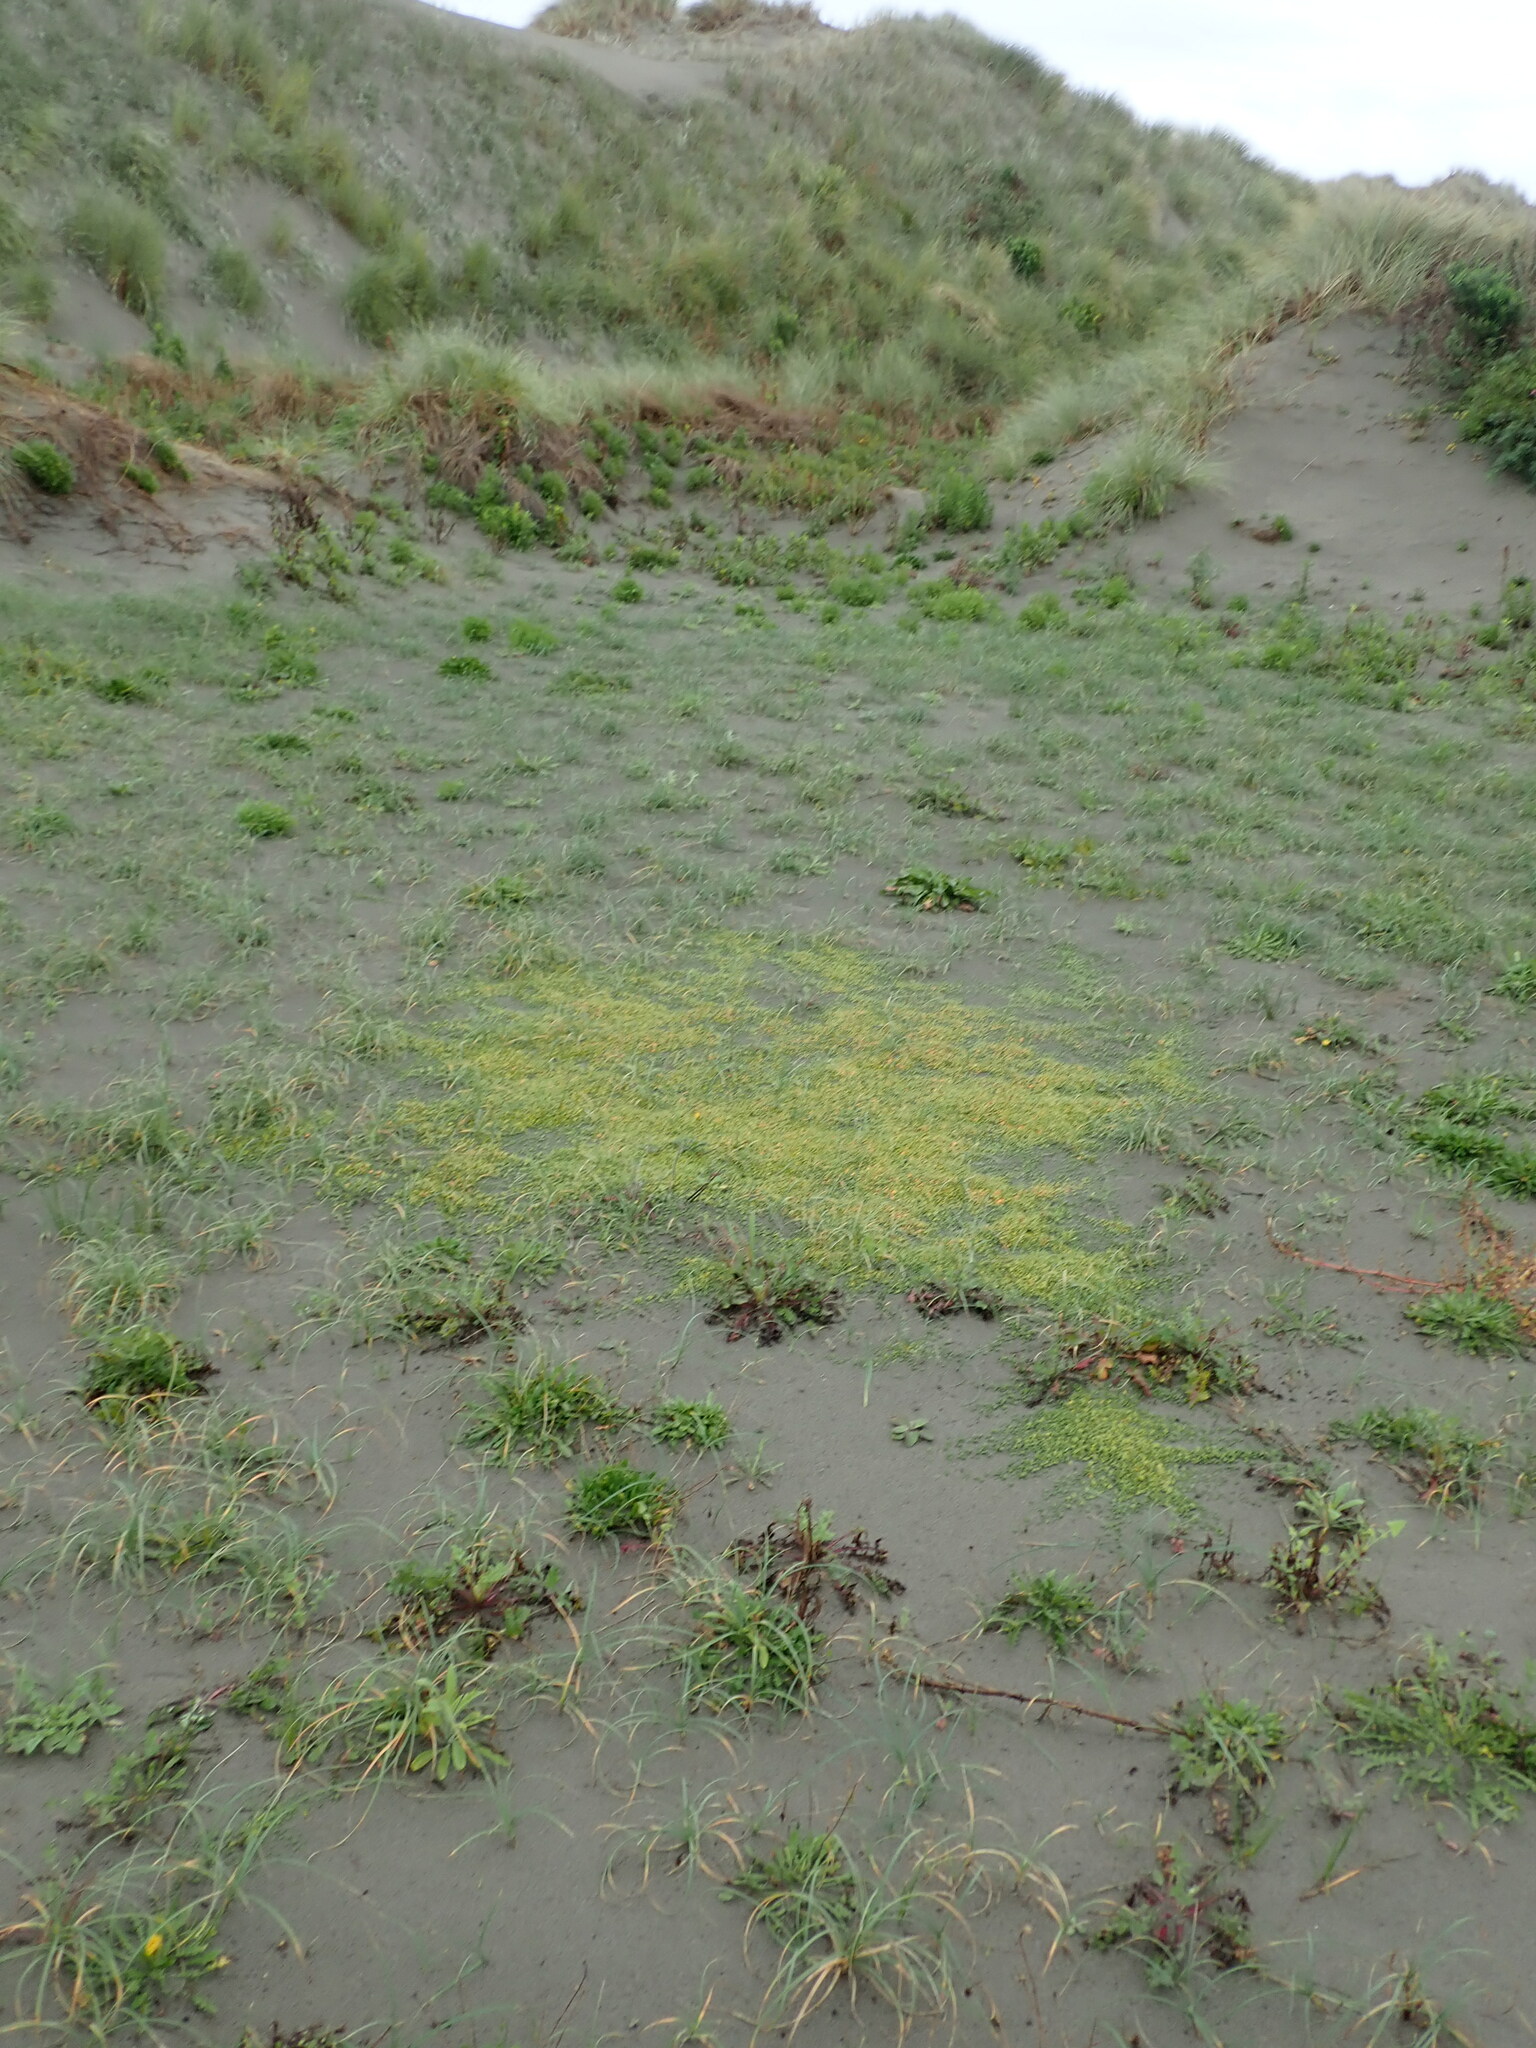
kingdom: Plantae
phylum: Tracheophyta
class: Magnoliopsida
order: Asterales
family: Goodeniaceae
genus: Goodenia
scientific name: Goodenia heenanii
